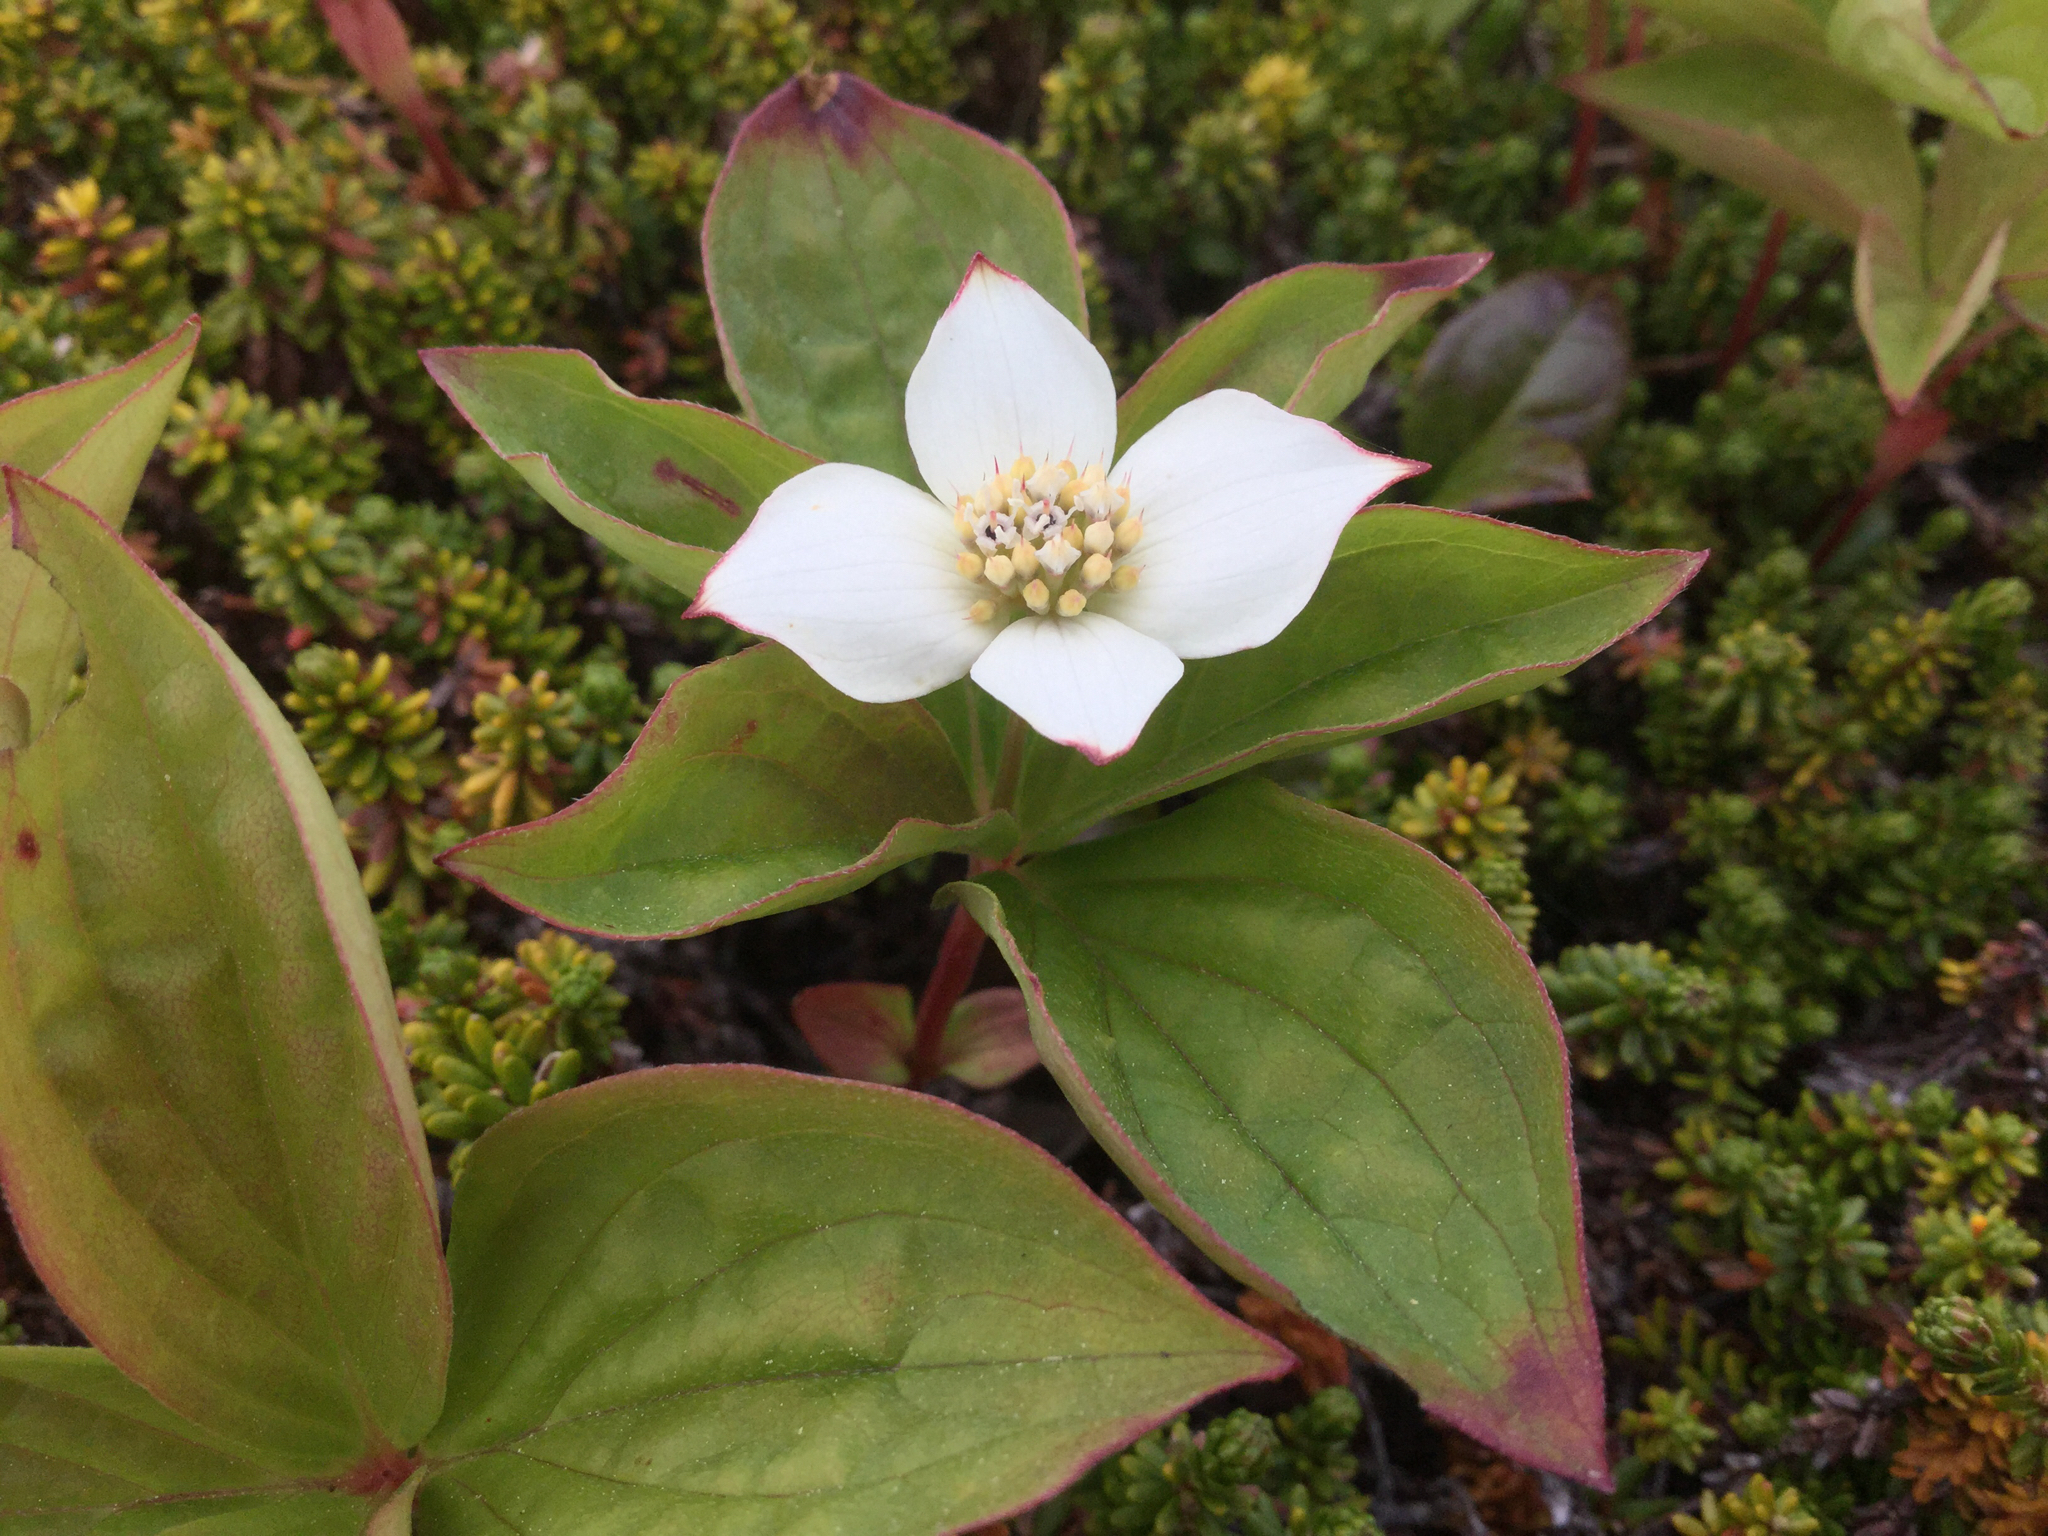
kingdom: Plantae
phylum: Tracheophyta
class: Magnoliopsida
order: Cornales
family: Cornaceae
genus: Cornus
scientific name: Cornus canadensis
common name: Creeping dogwood
